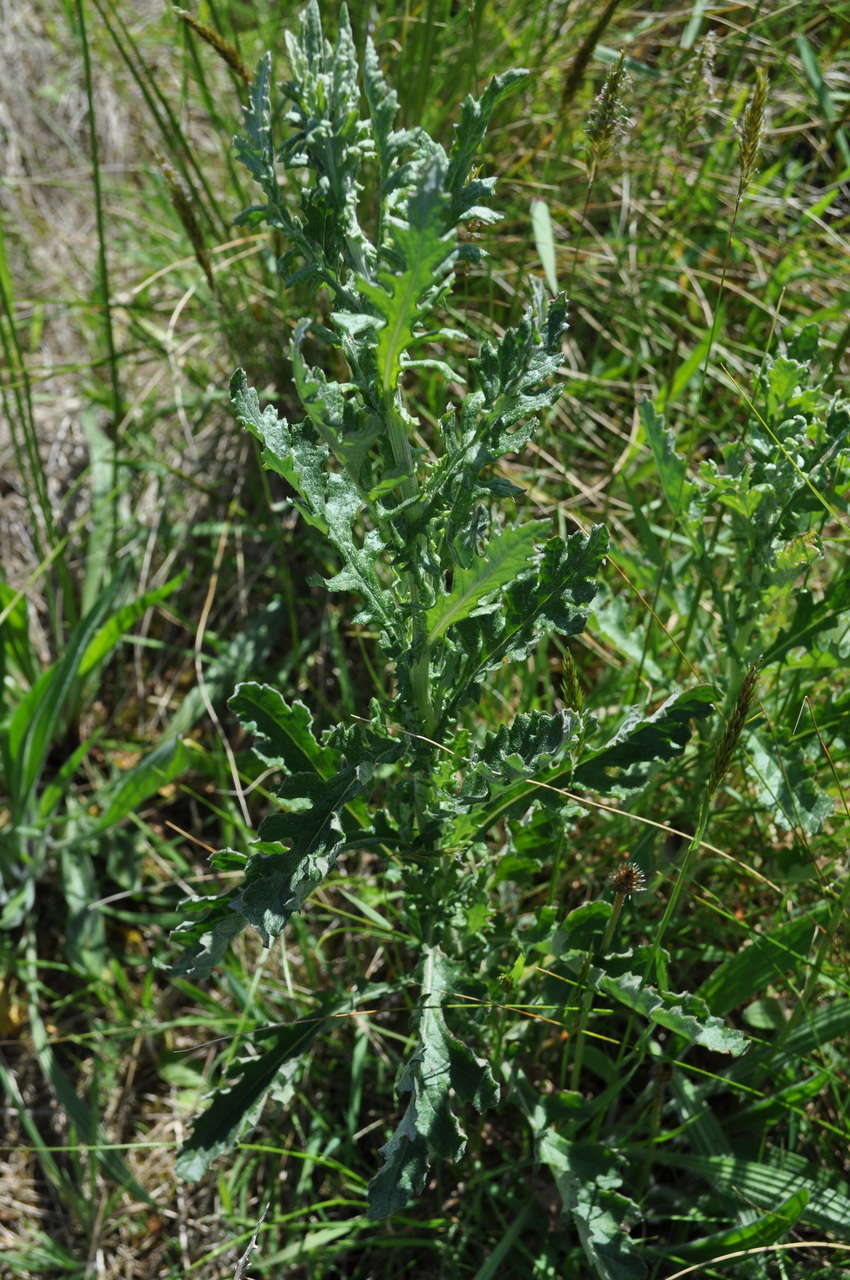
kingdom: Plantae
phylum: Tracheophyta
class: Magnoliopsida
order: Asterales
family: Asteraceae
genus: Senecio
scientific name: Senecio biserratus
